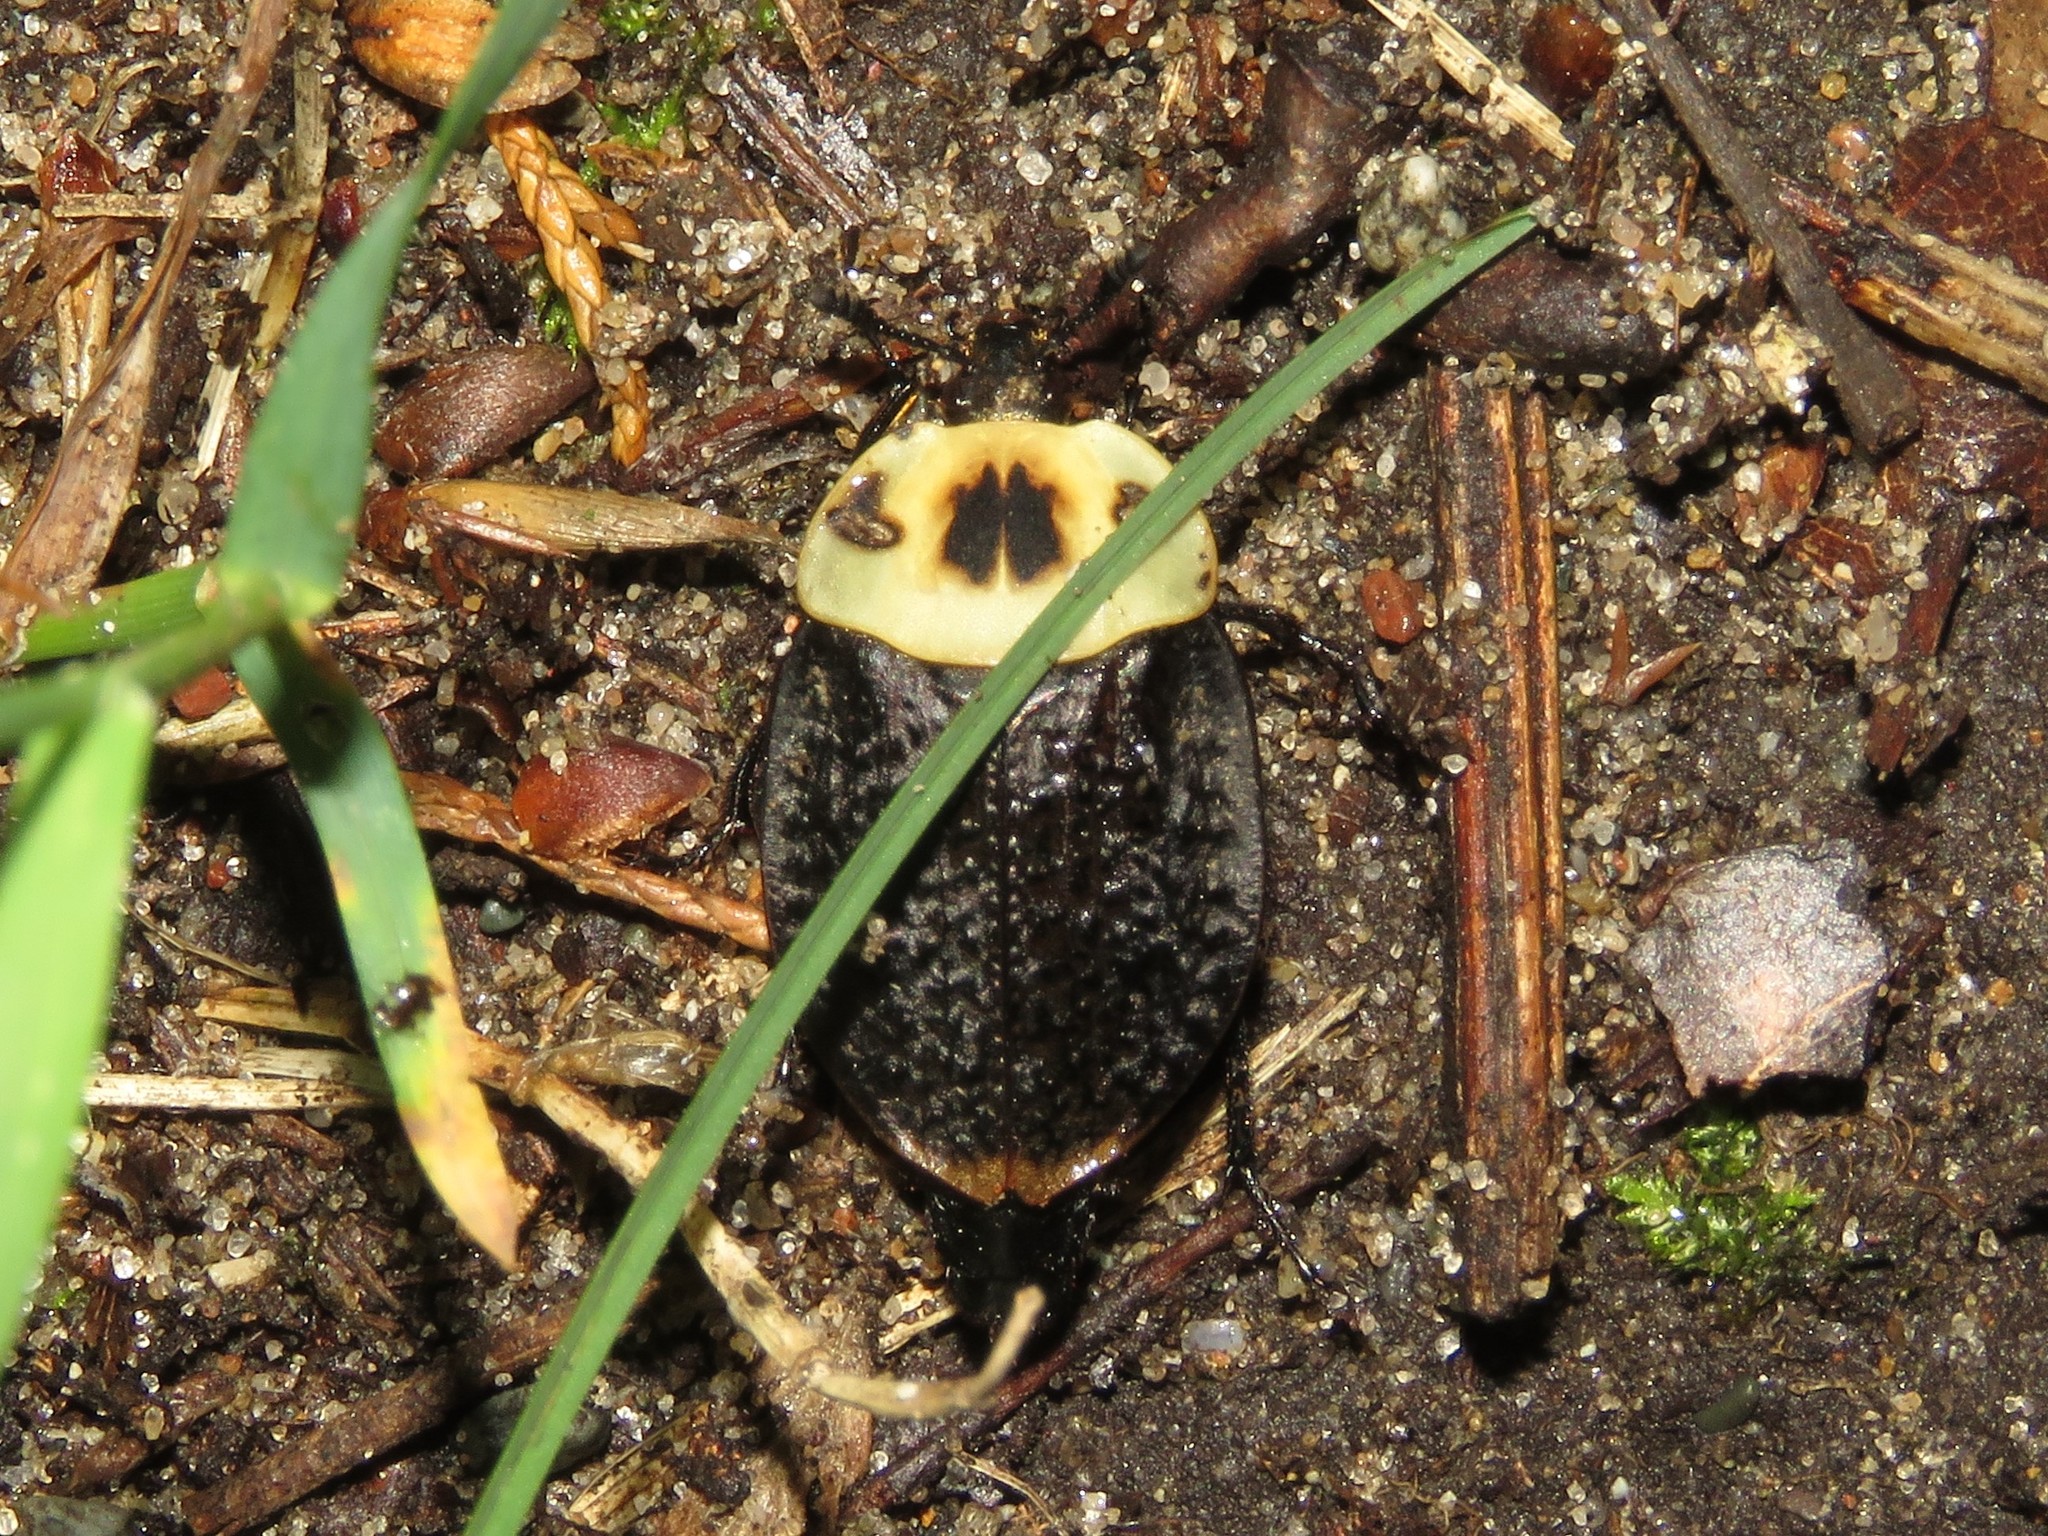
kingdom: Animalia
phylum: Arthropoda
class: Insecta
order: Coleoptera
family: Staphylinidae
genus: Necrophila
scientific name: Necrophila americana
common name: American carrion beetle
